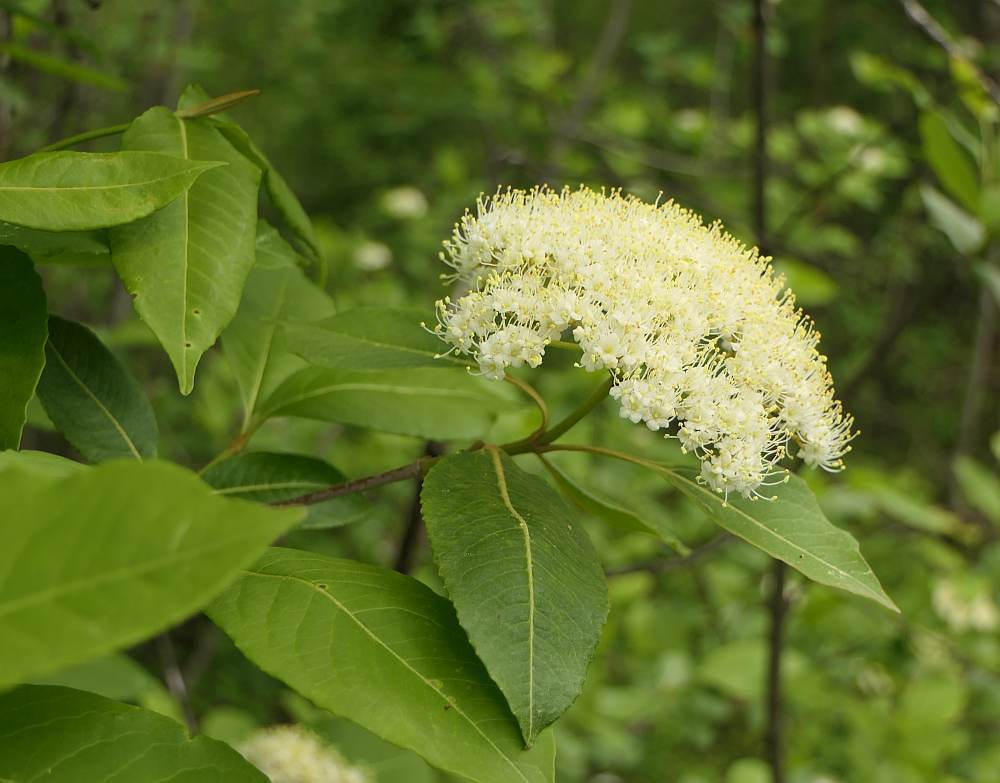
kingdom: Plantae
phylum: Tracheophyta
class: Magnoliopsida
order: Dipsacales
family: Viburnaceae
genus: Viburnum
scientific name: Viburnum cassinoides
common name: Swamp haw
